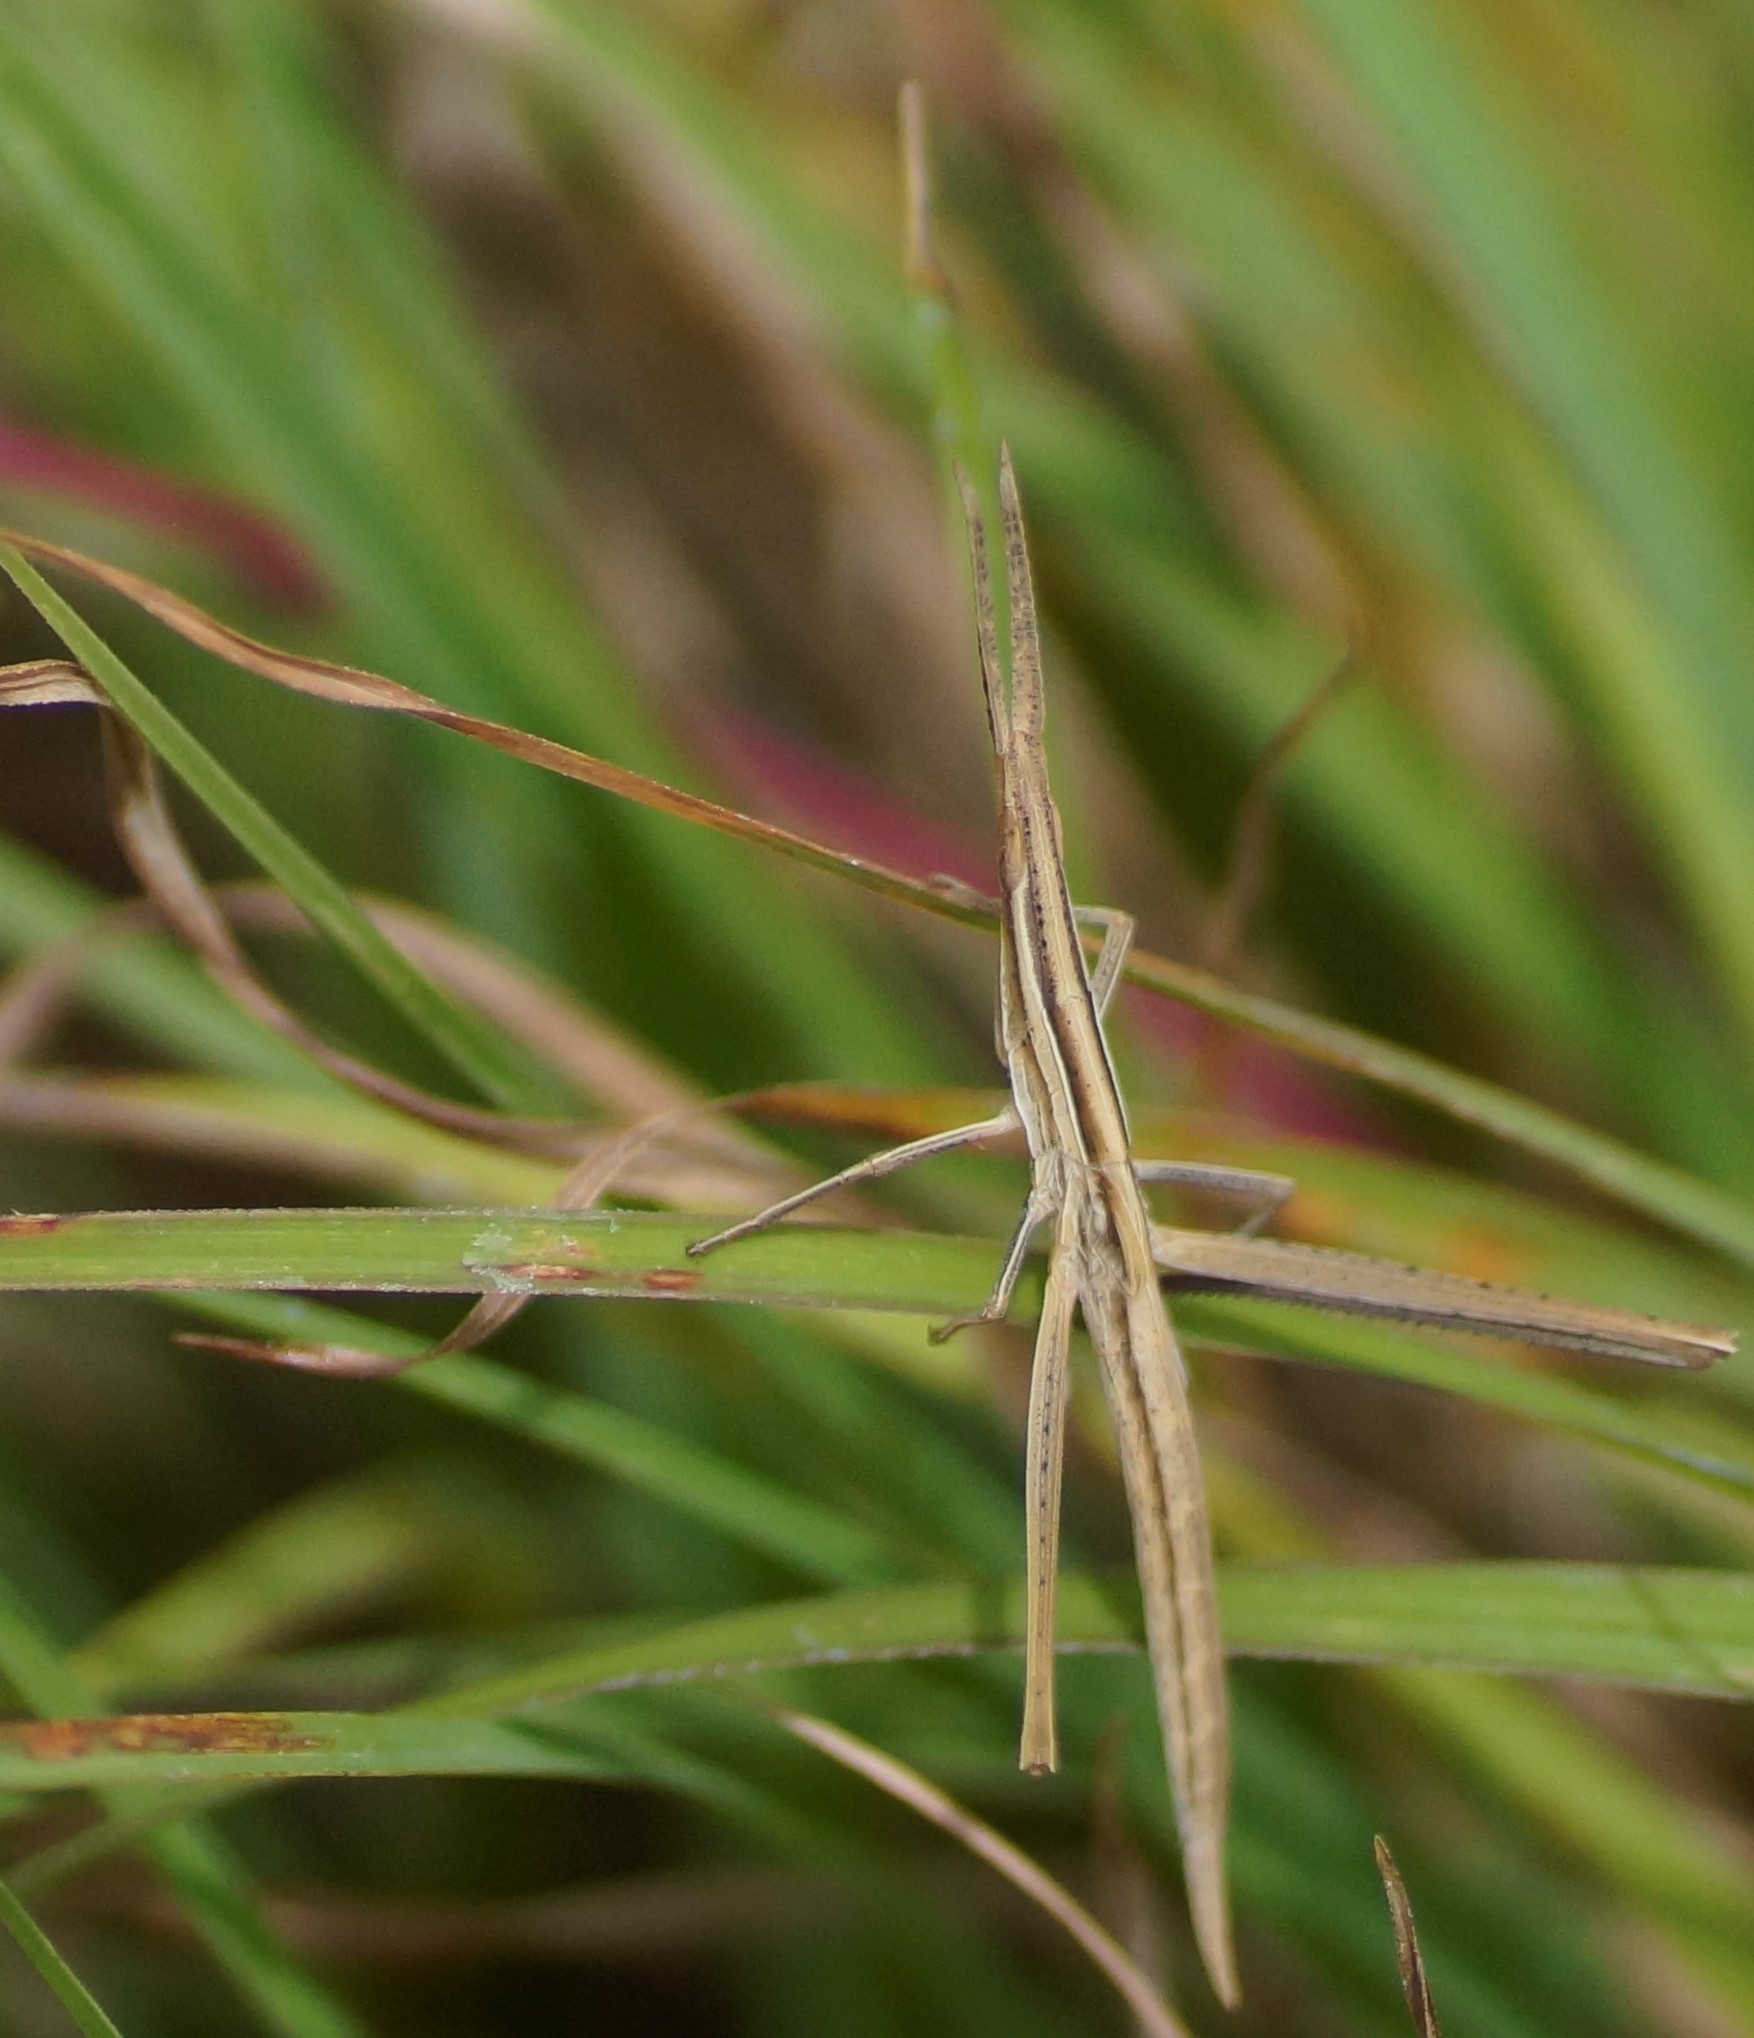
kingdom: Animalia
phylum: Arthropoda
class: Insecta
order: Orthoptera
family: Acrididae
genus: Acrida
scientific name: Acrida conica
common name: Giant green slantface
